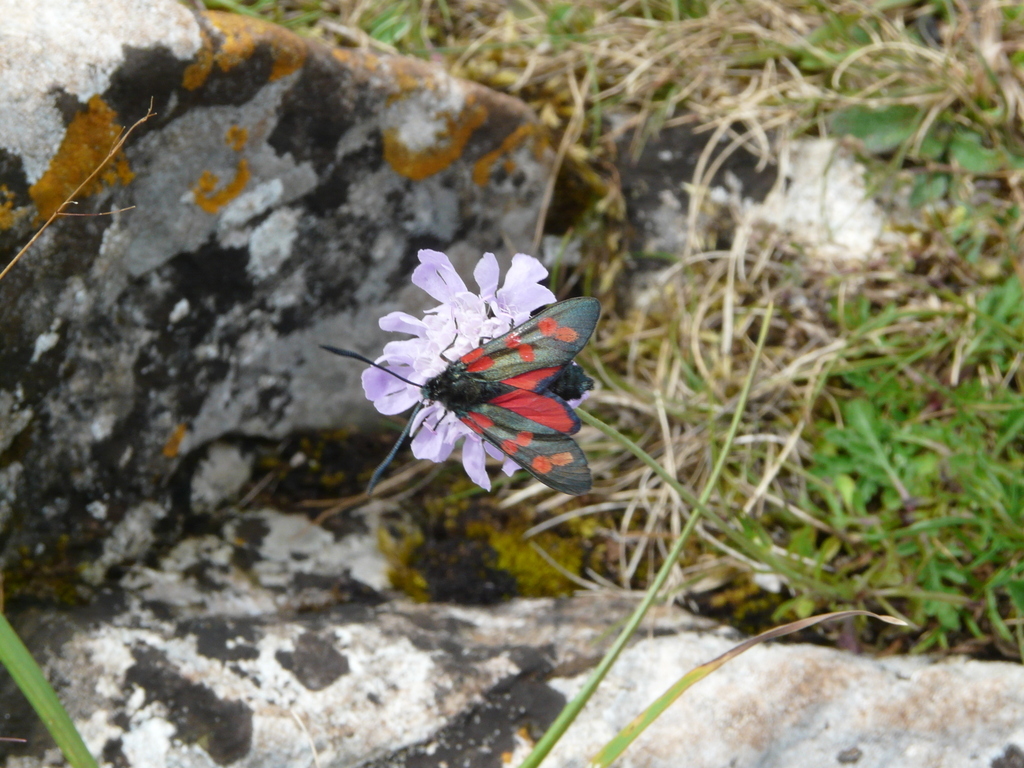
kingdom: Animalia
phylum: Arthropoda
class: Insecta
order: Lepidoptera
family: Zygaenidae
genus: Zygaena
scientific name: Zygaena filipendulae
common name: Six-spot burnet
